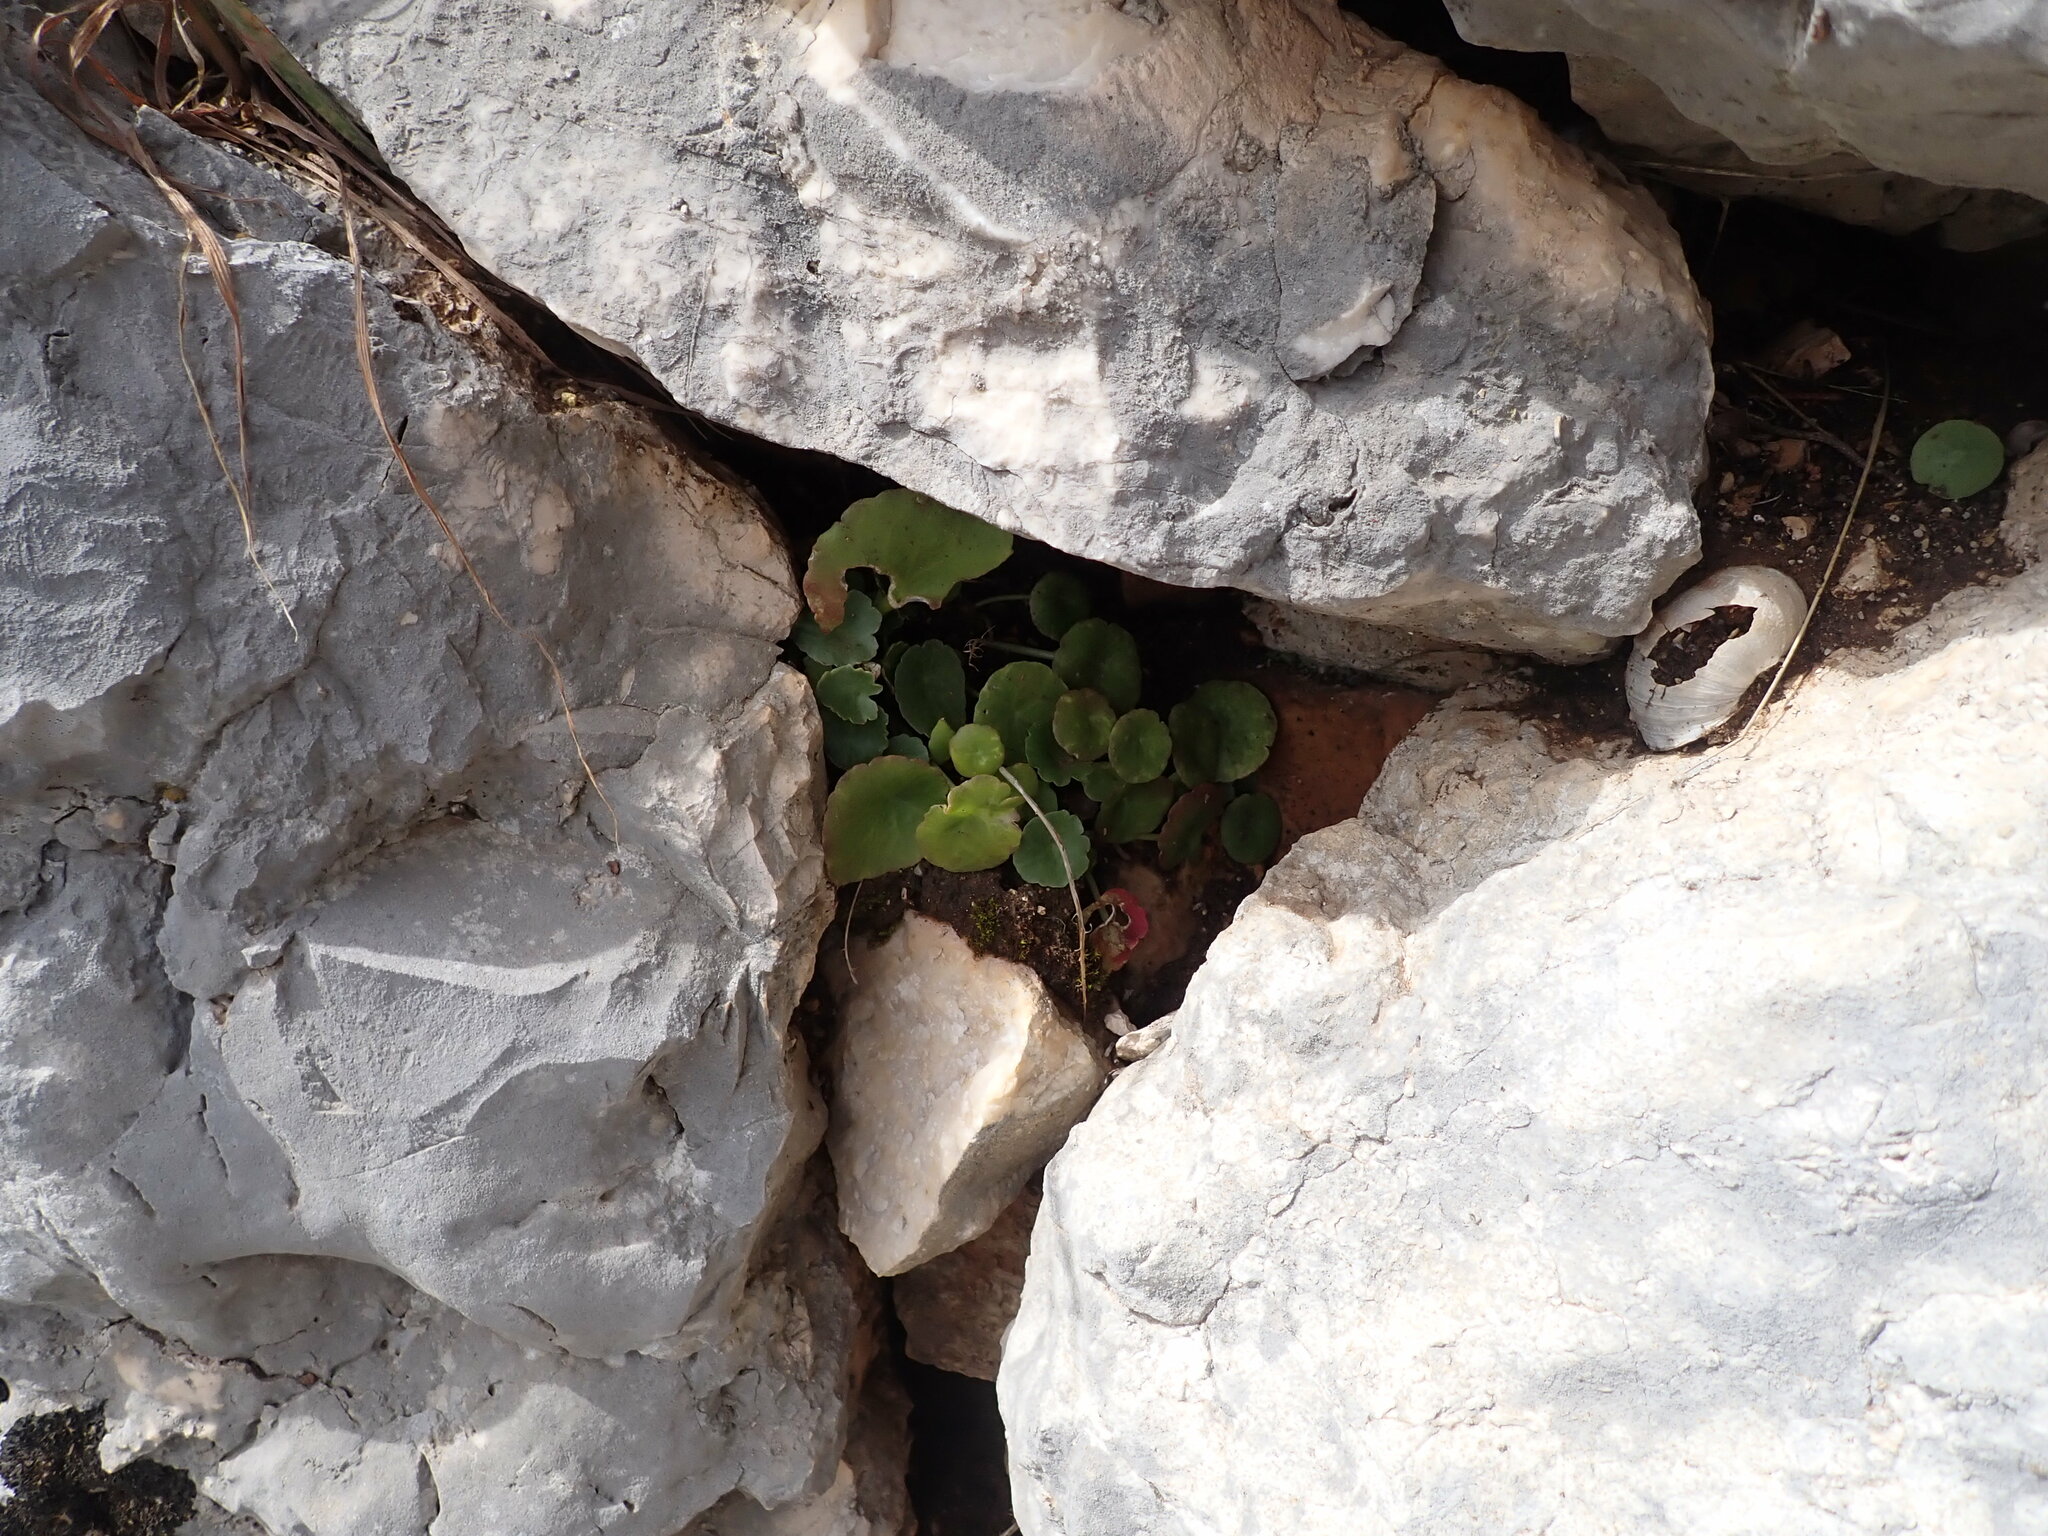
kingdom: Plantae
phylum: Tracheophyta
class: Magnoliopsida
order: Saxifragales
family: Crassulaceae
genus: Umbilicus
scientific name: Umbilicus rupestris
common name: Navelwort
